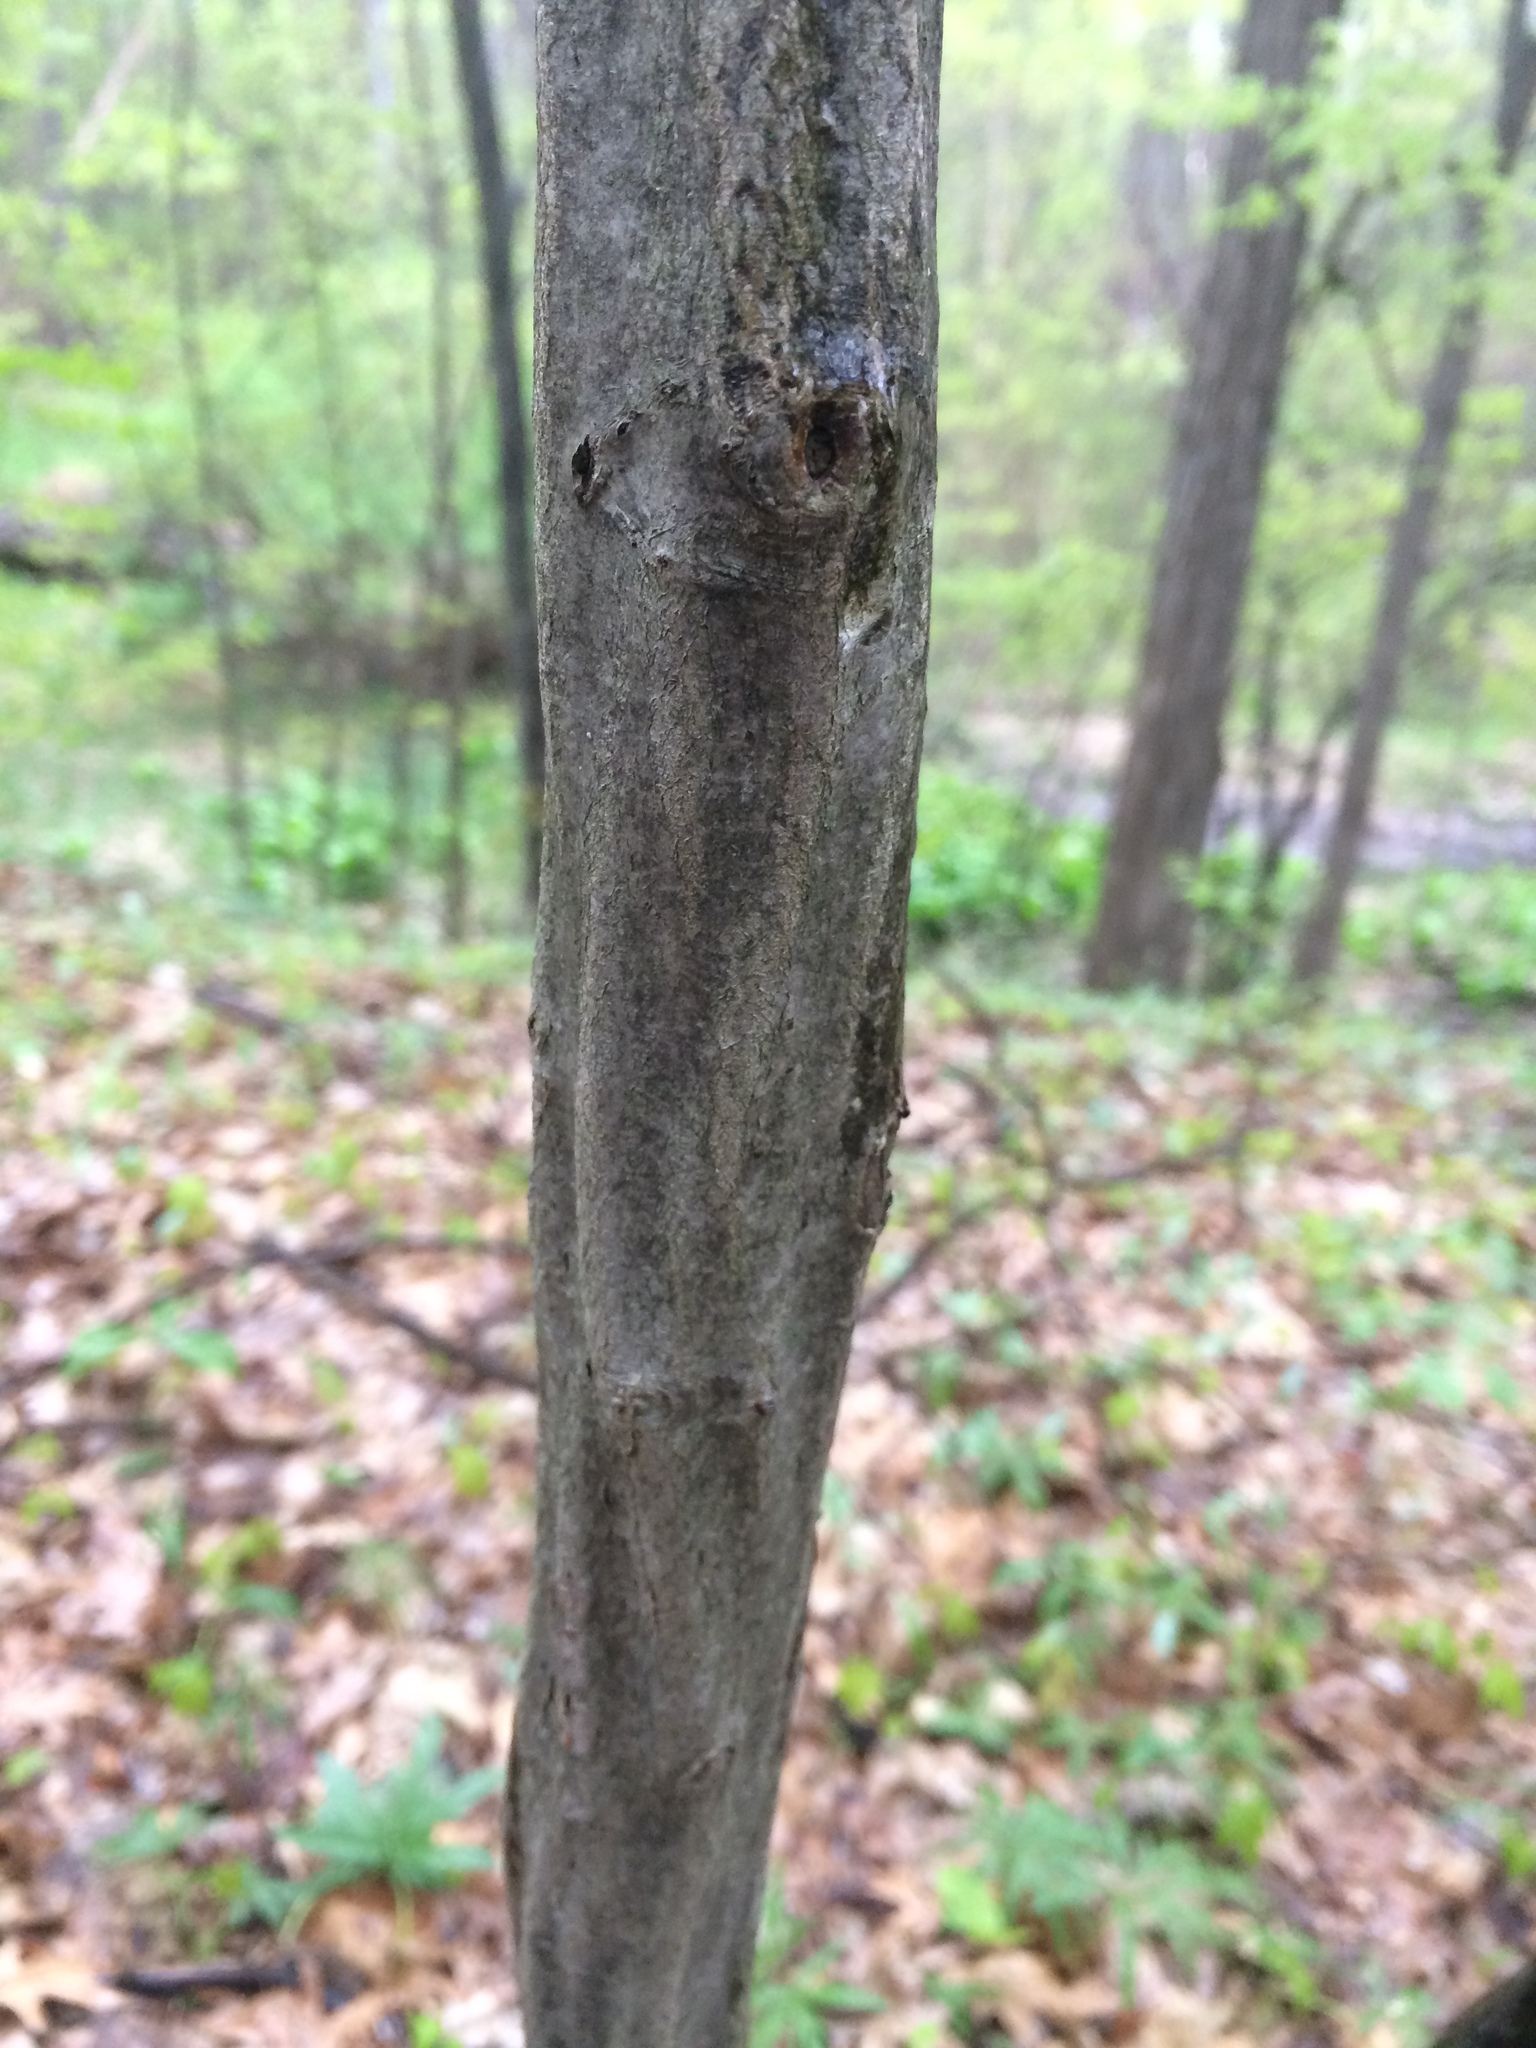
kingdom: Plantae
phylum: Tracheophyta
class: Magnoliopsida
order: Fagales
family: Betulaceae
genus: Carpinus
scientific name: Carpinus caroliniana
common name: American hornbeam
